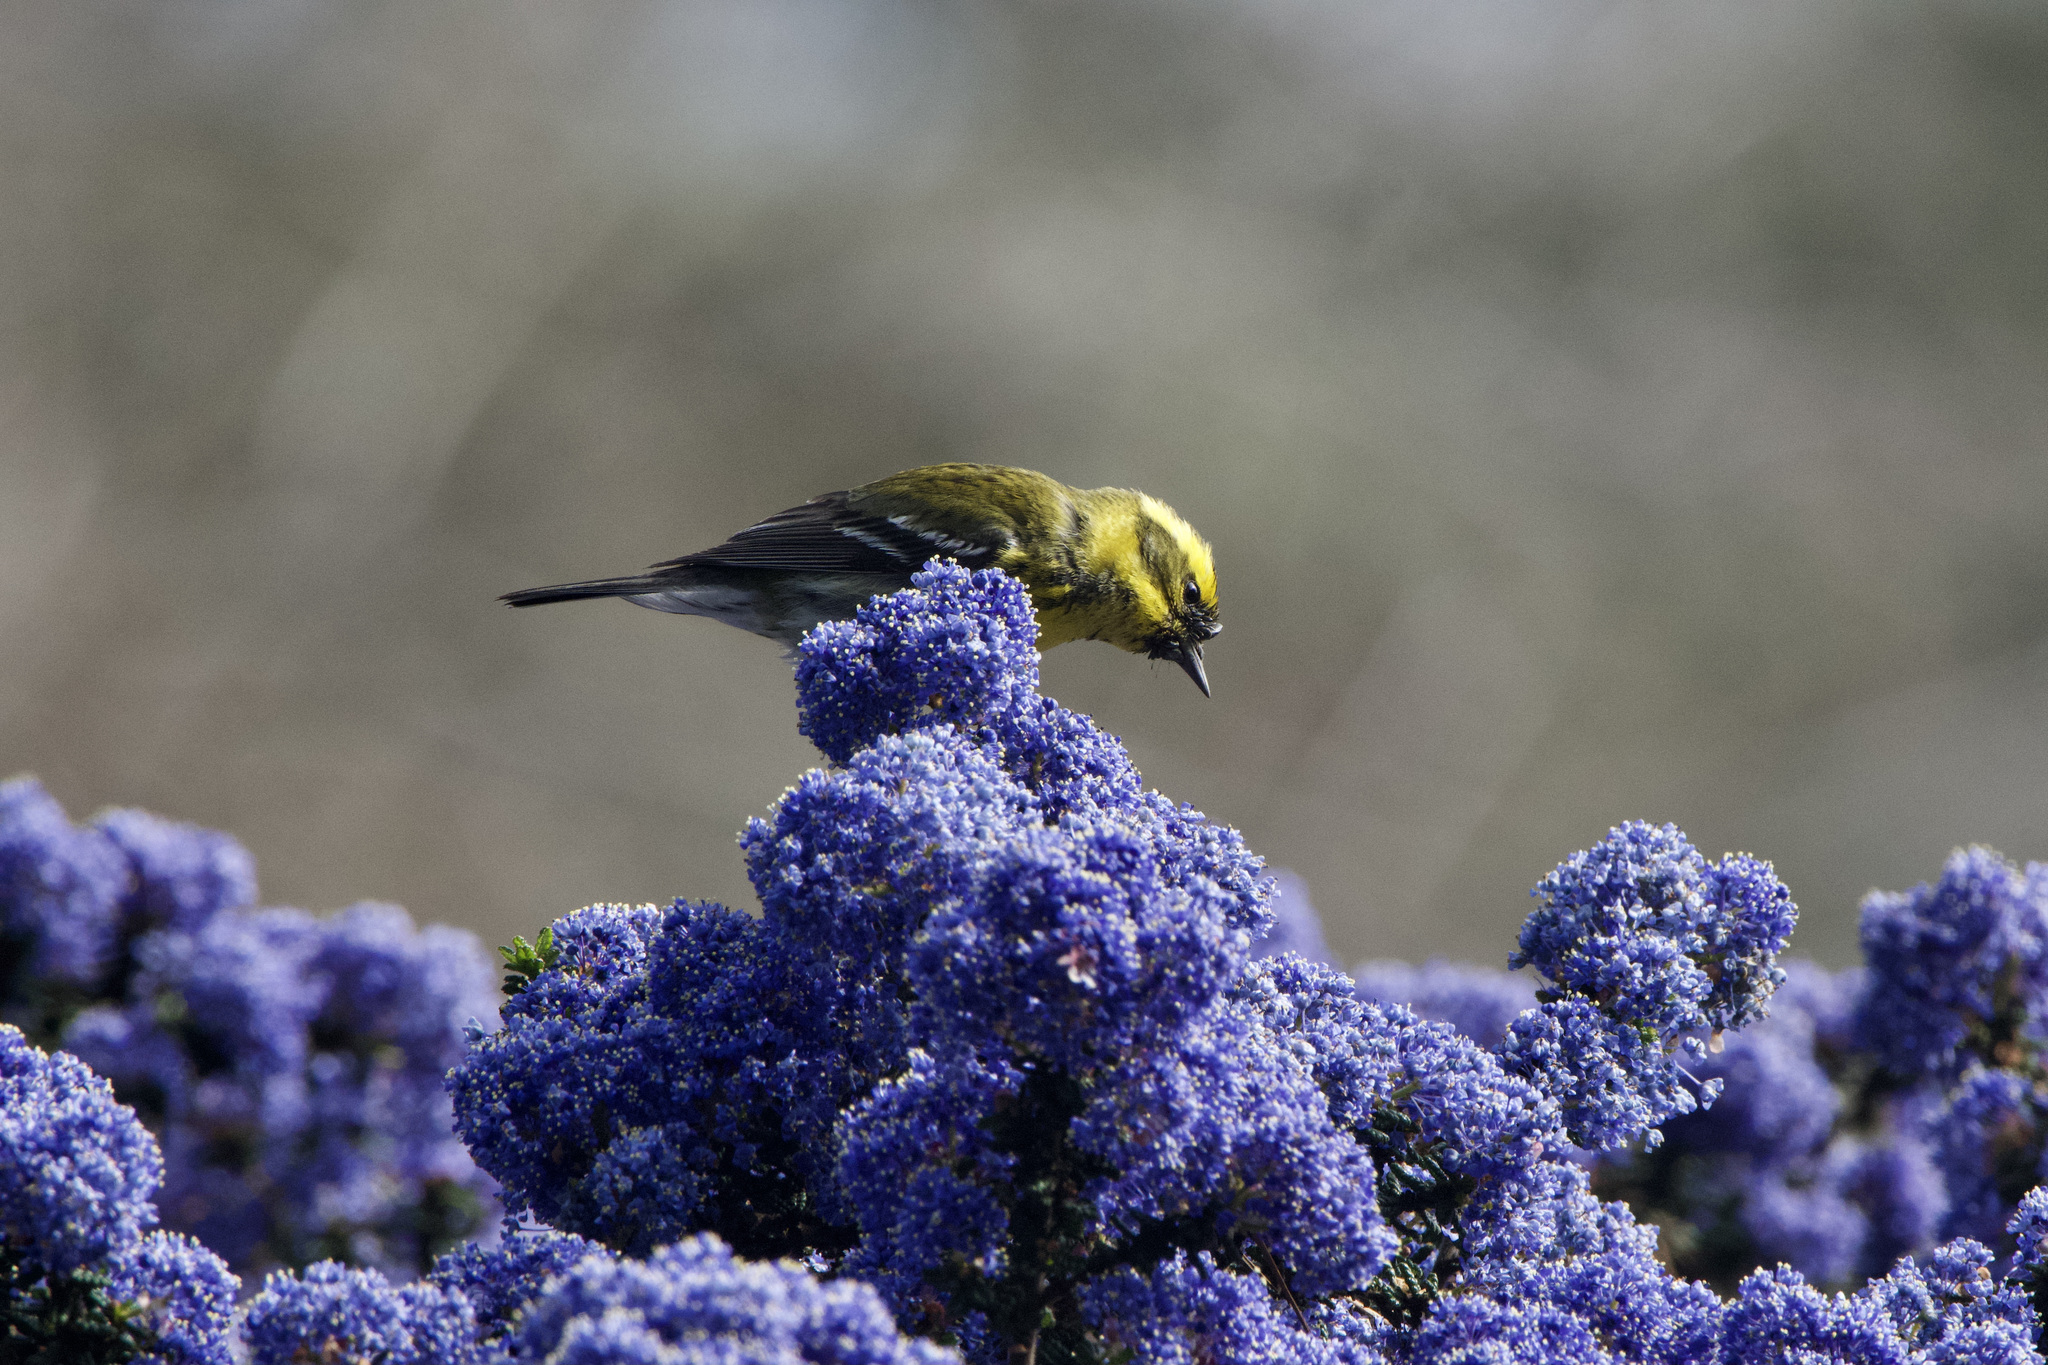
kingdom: Animalia
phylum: Chordata
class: Aves
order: Passeriformes
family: Parulidae
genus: Setophaga
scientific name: Setophaga townsendi
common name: Townsend's warbler
